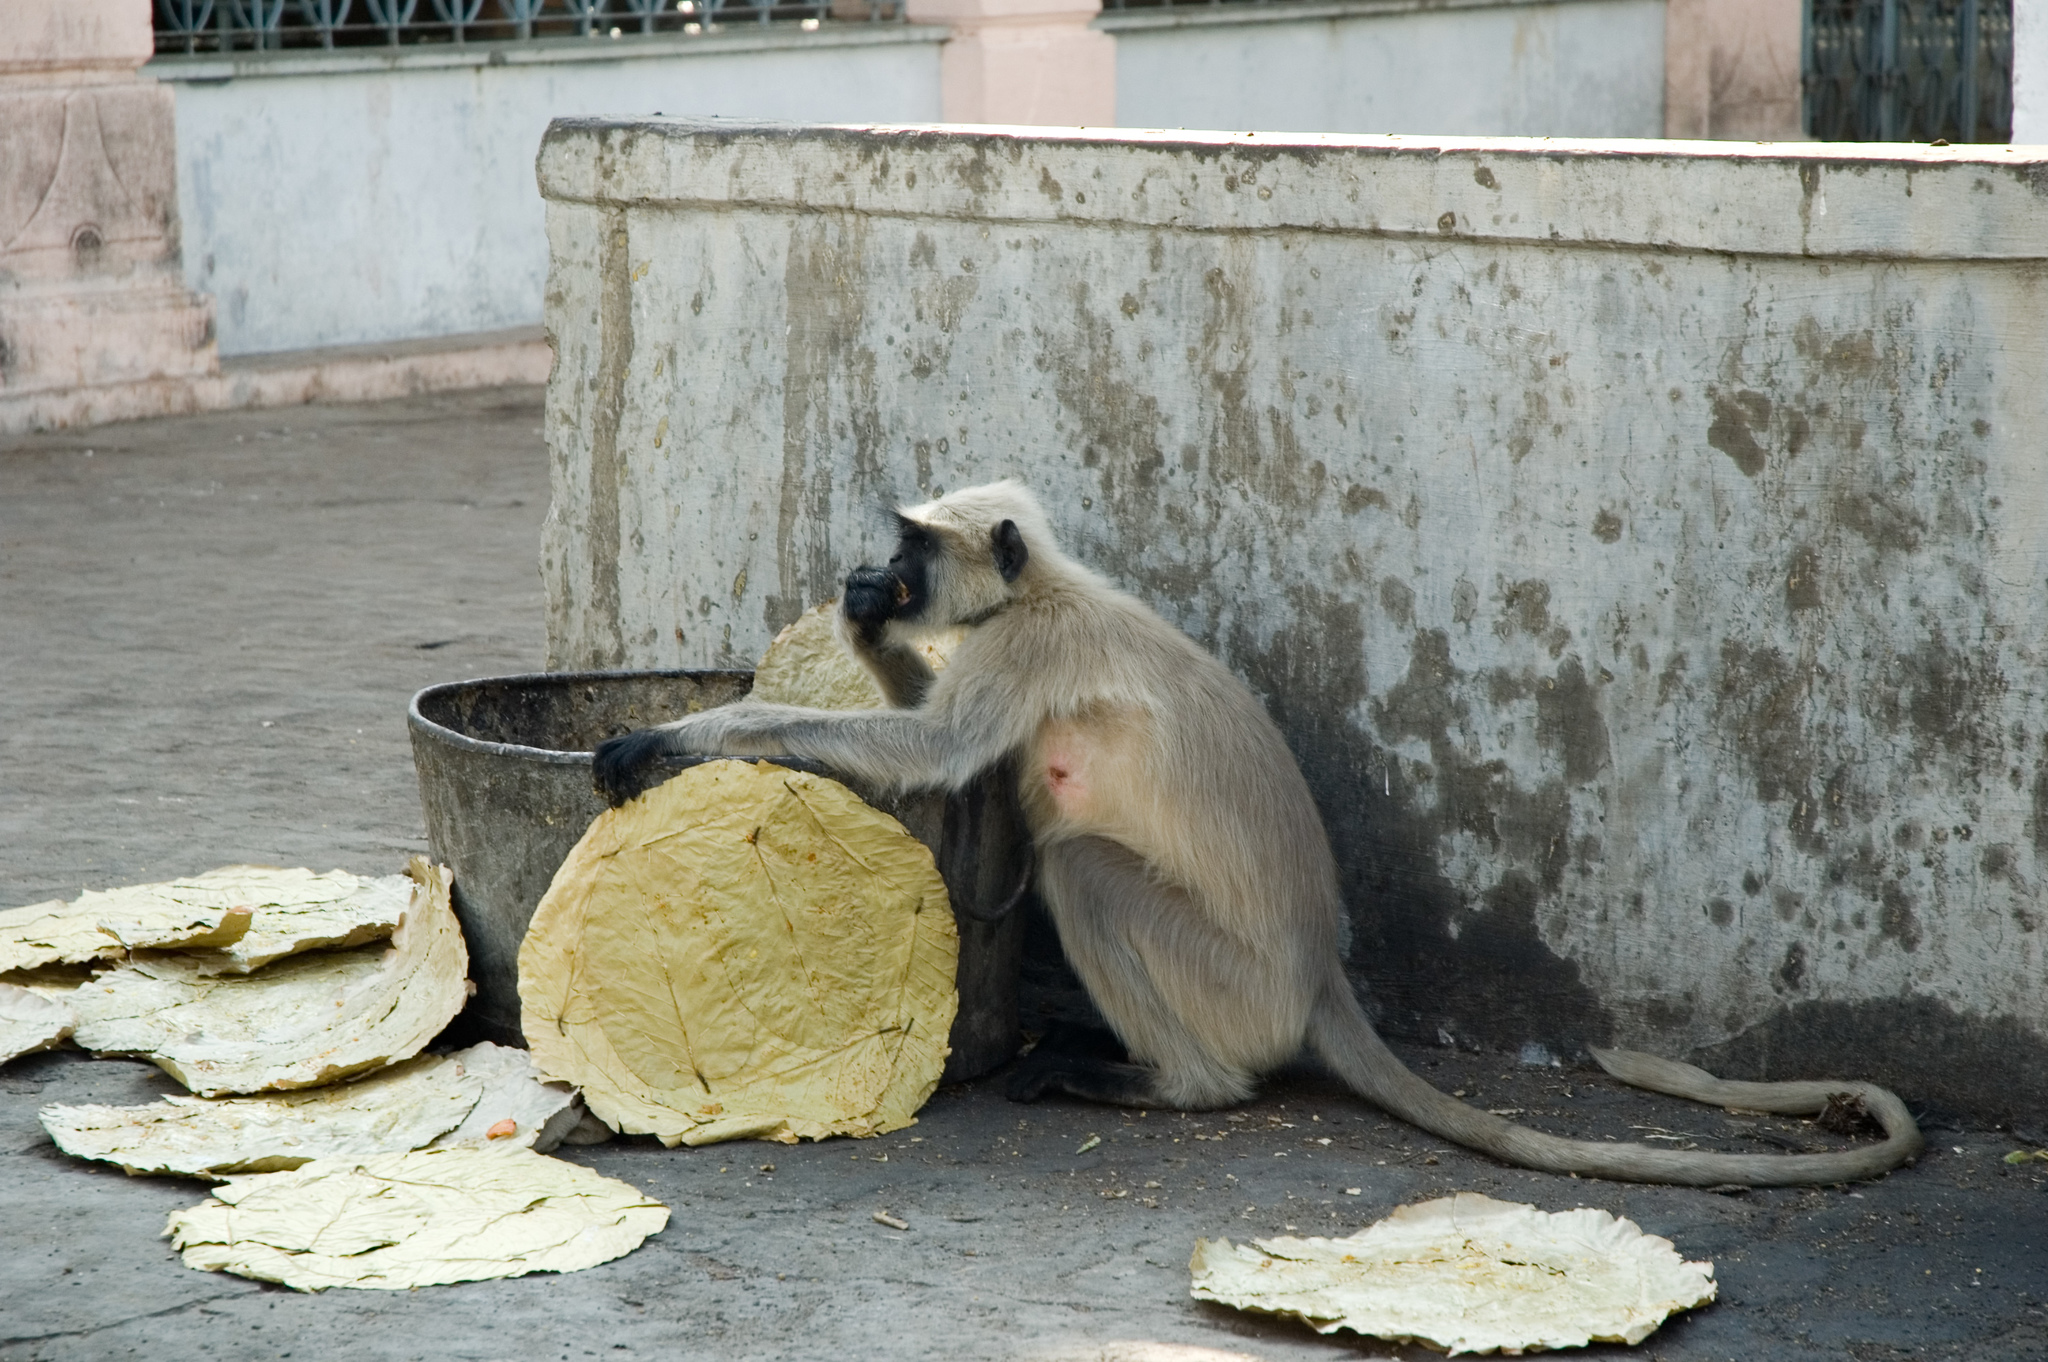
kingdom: Animalia
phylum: Chordata
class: Mammalia
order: Primates
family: Cercopithecidae
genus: Semnopithecus
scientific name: Semnopithecus entellus
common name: Northern plains gray langur
